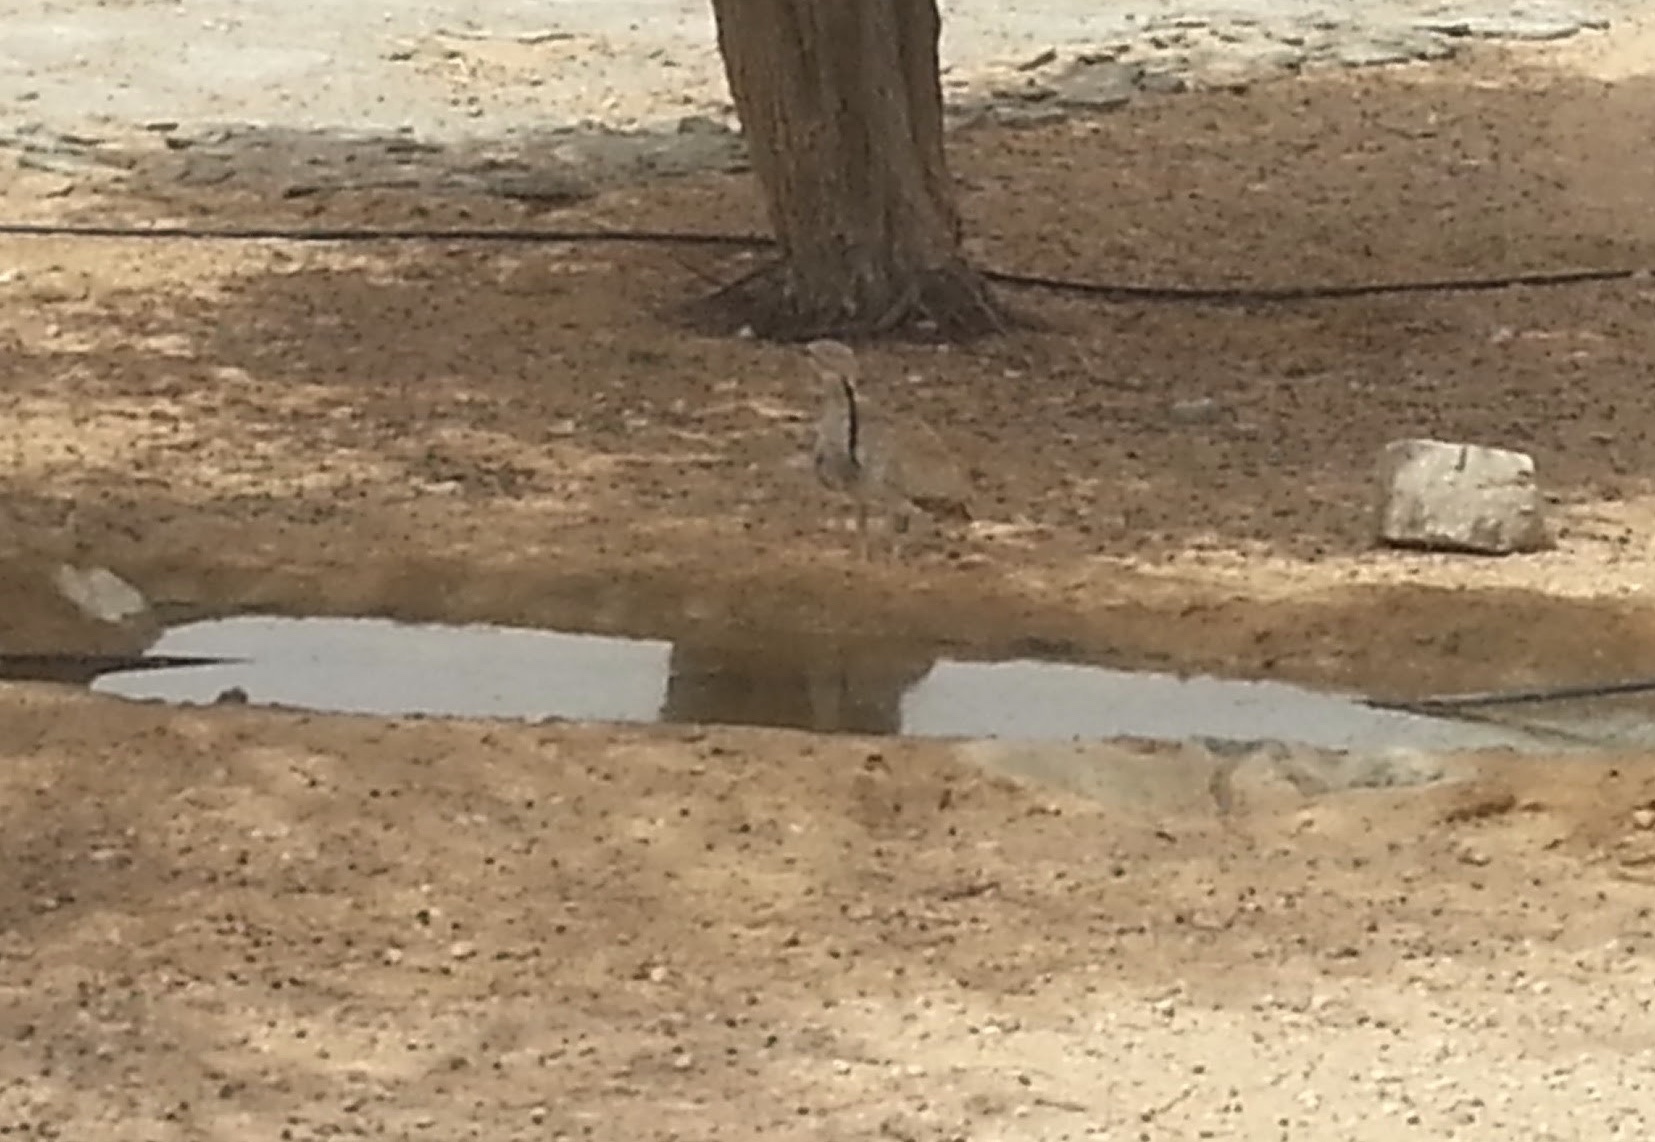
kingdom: Animalia
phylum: Chordata
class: Aves
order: Otidiformes
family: Otididae
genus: Chlamydotis
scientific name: Chlamydotis macqueenii
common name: Macqueen's bustard
